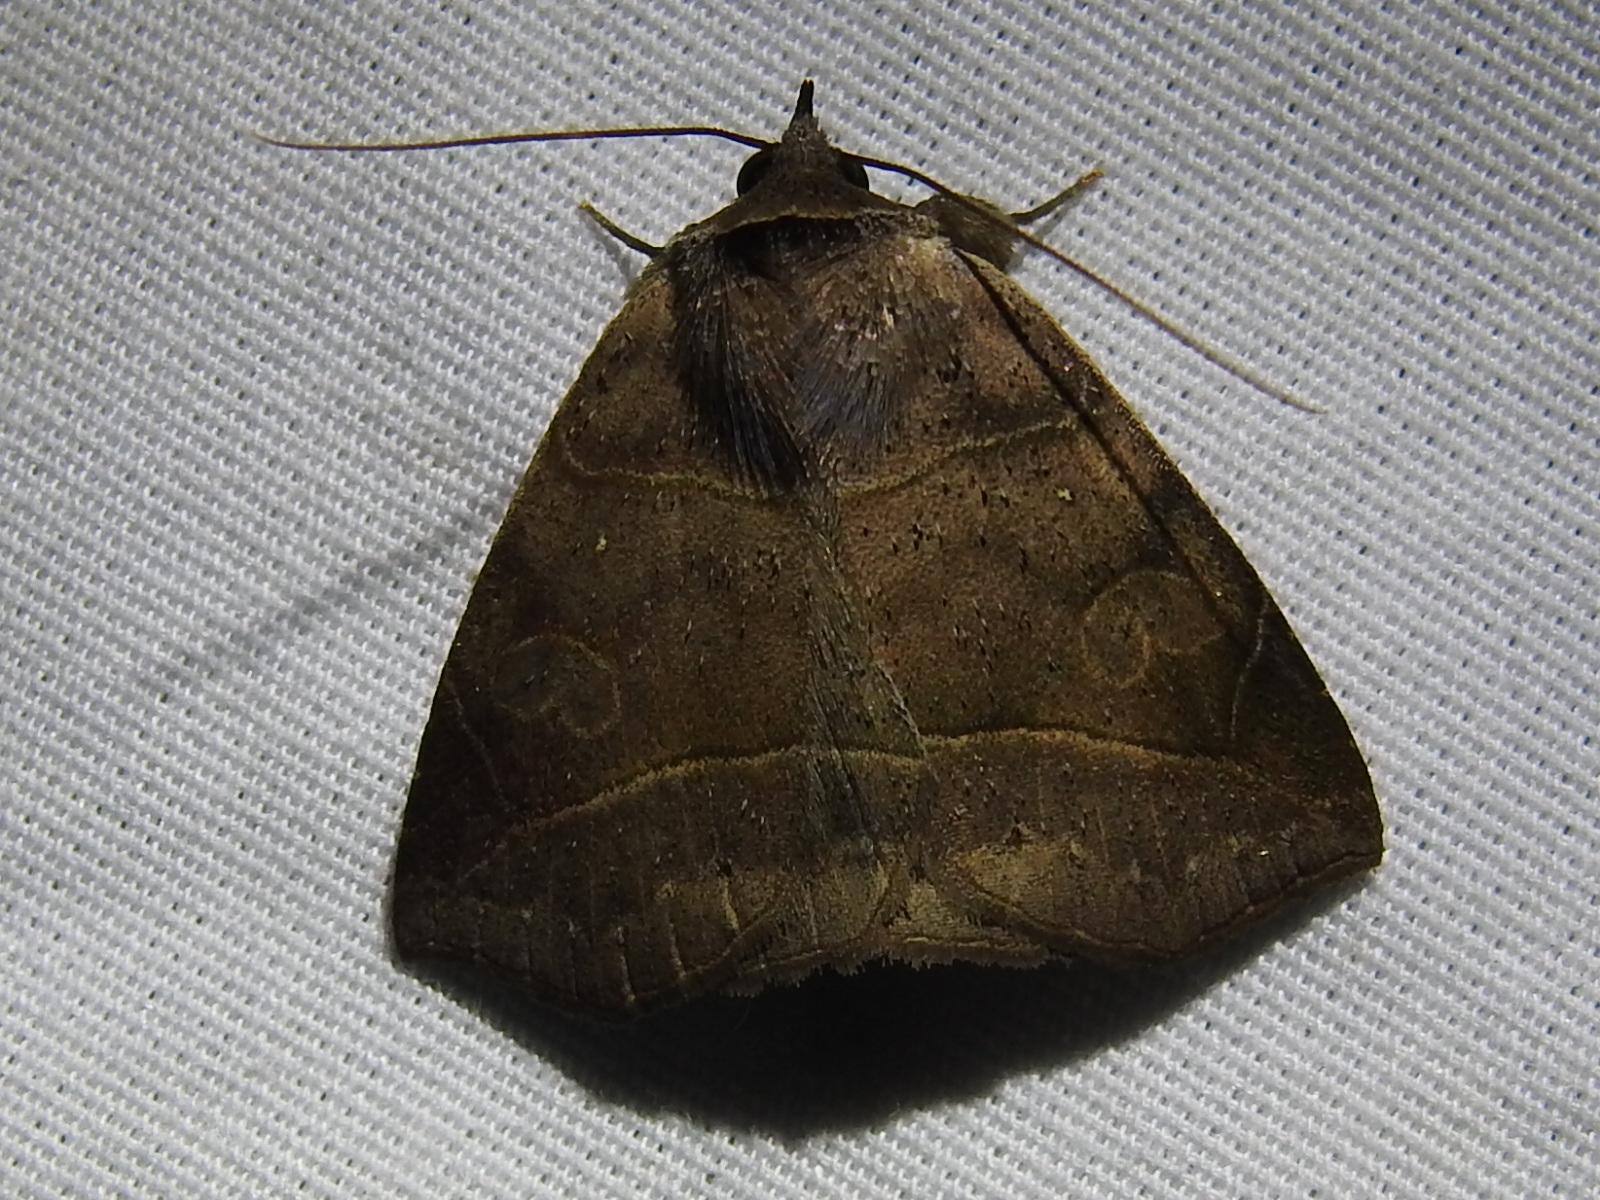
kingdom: Animalia
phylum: Arthropoda
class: Insecta
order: Lepidoptera
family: Erebidae
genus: Isogona
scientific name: Isogona natatrix
